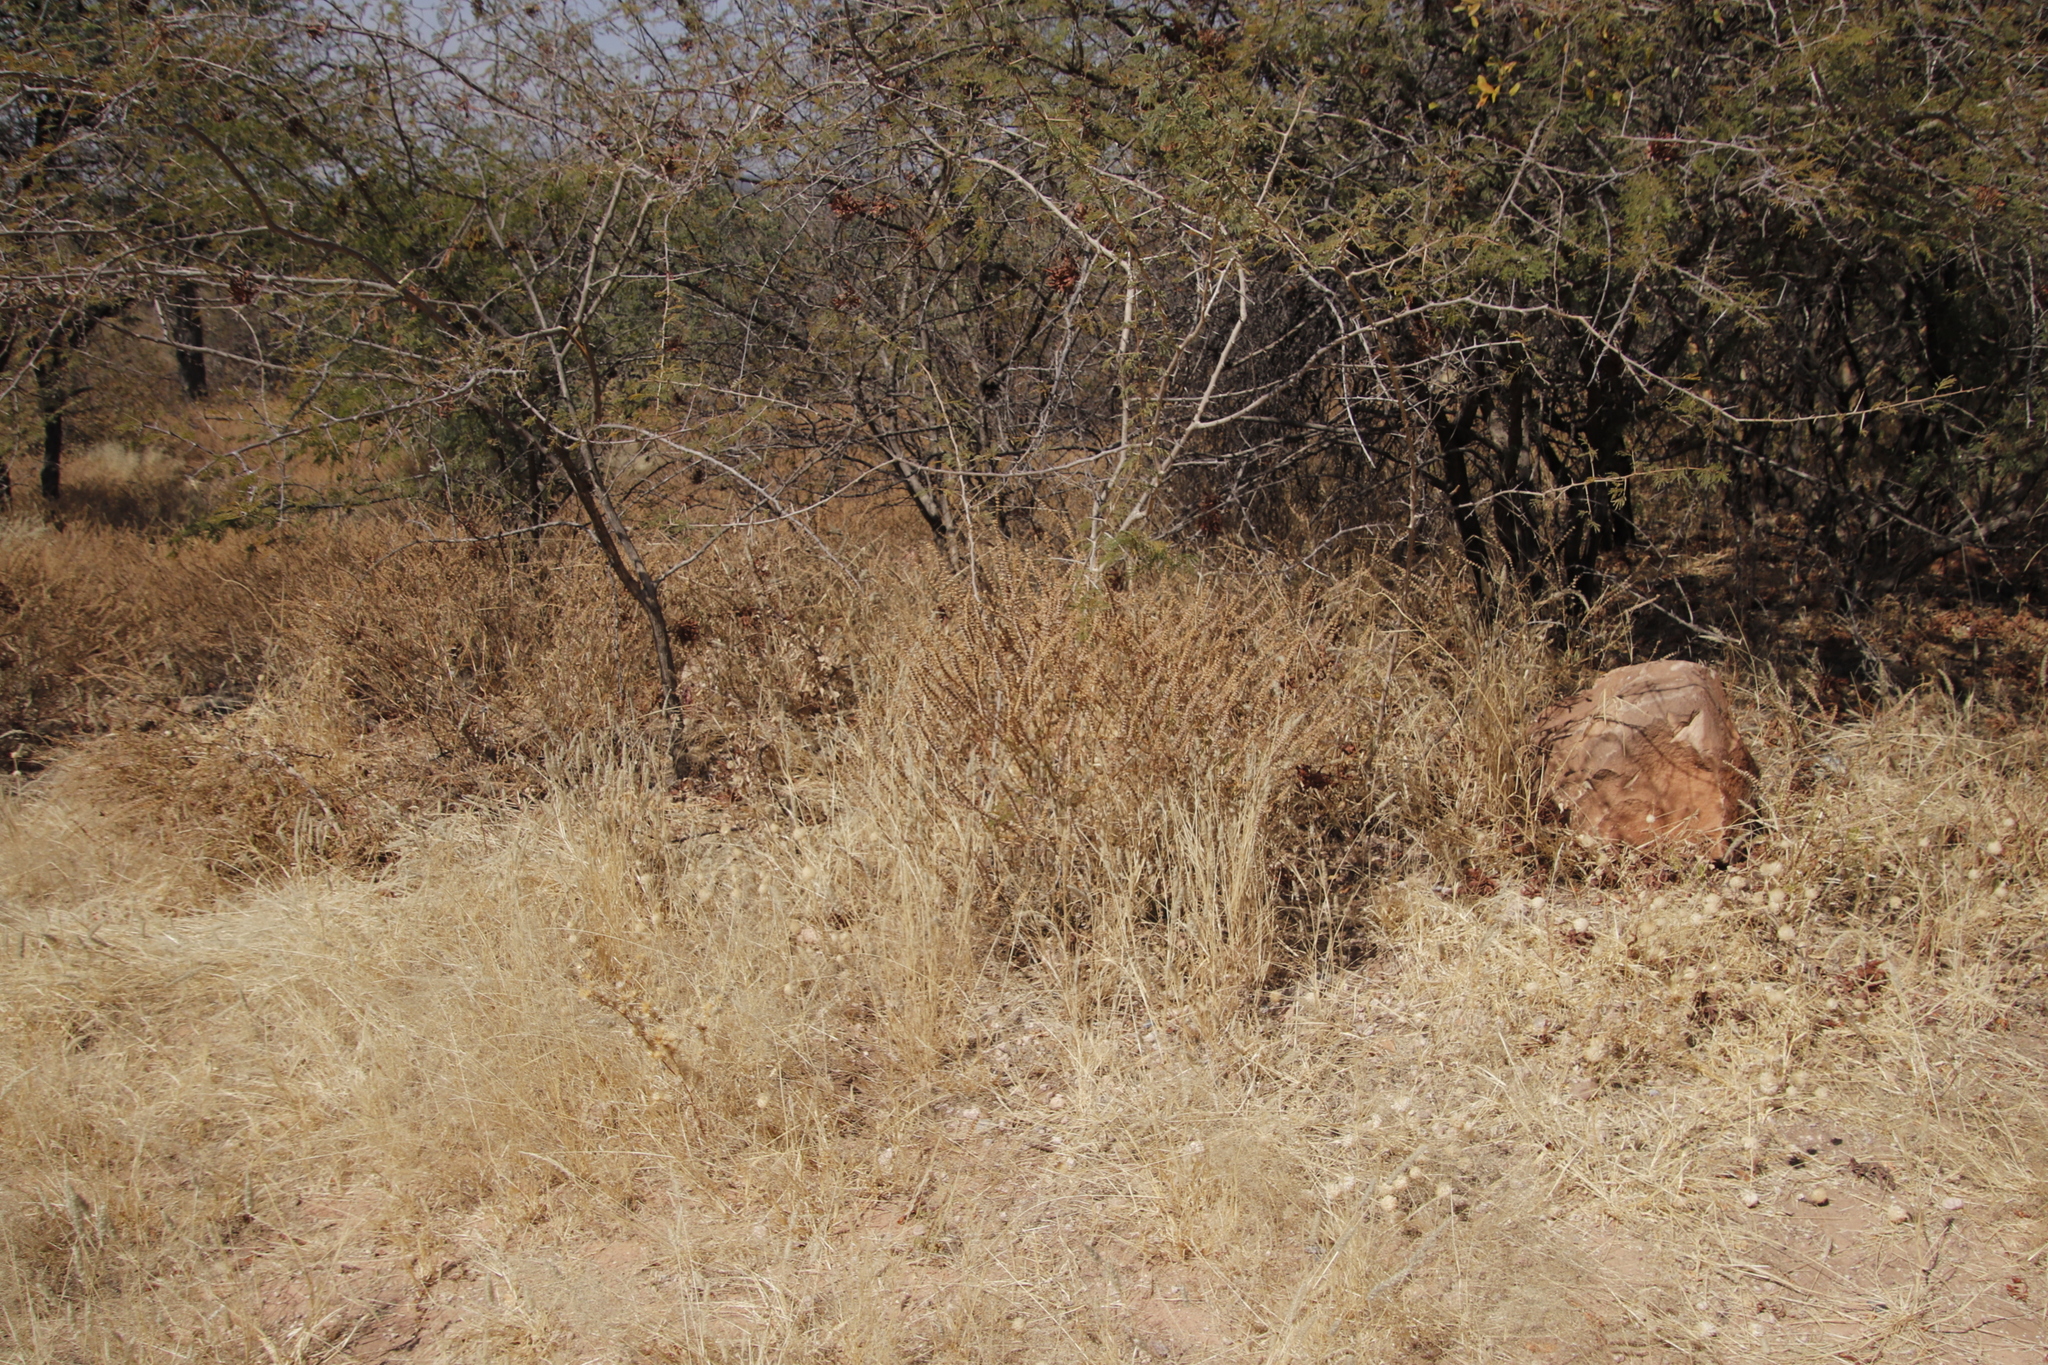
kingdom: Plantae
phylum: Tracheophyta
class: Liliopsida
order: Poales
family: Poaceae
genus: Enneapogon
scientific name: Enneapogon cenchroides
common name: Soft feather pappusgrass
